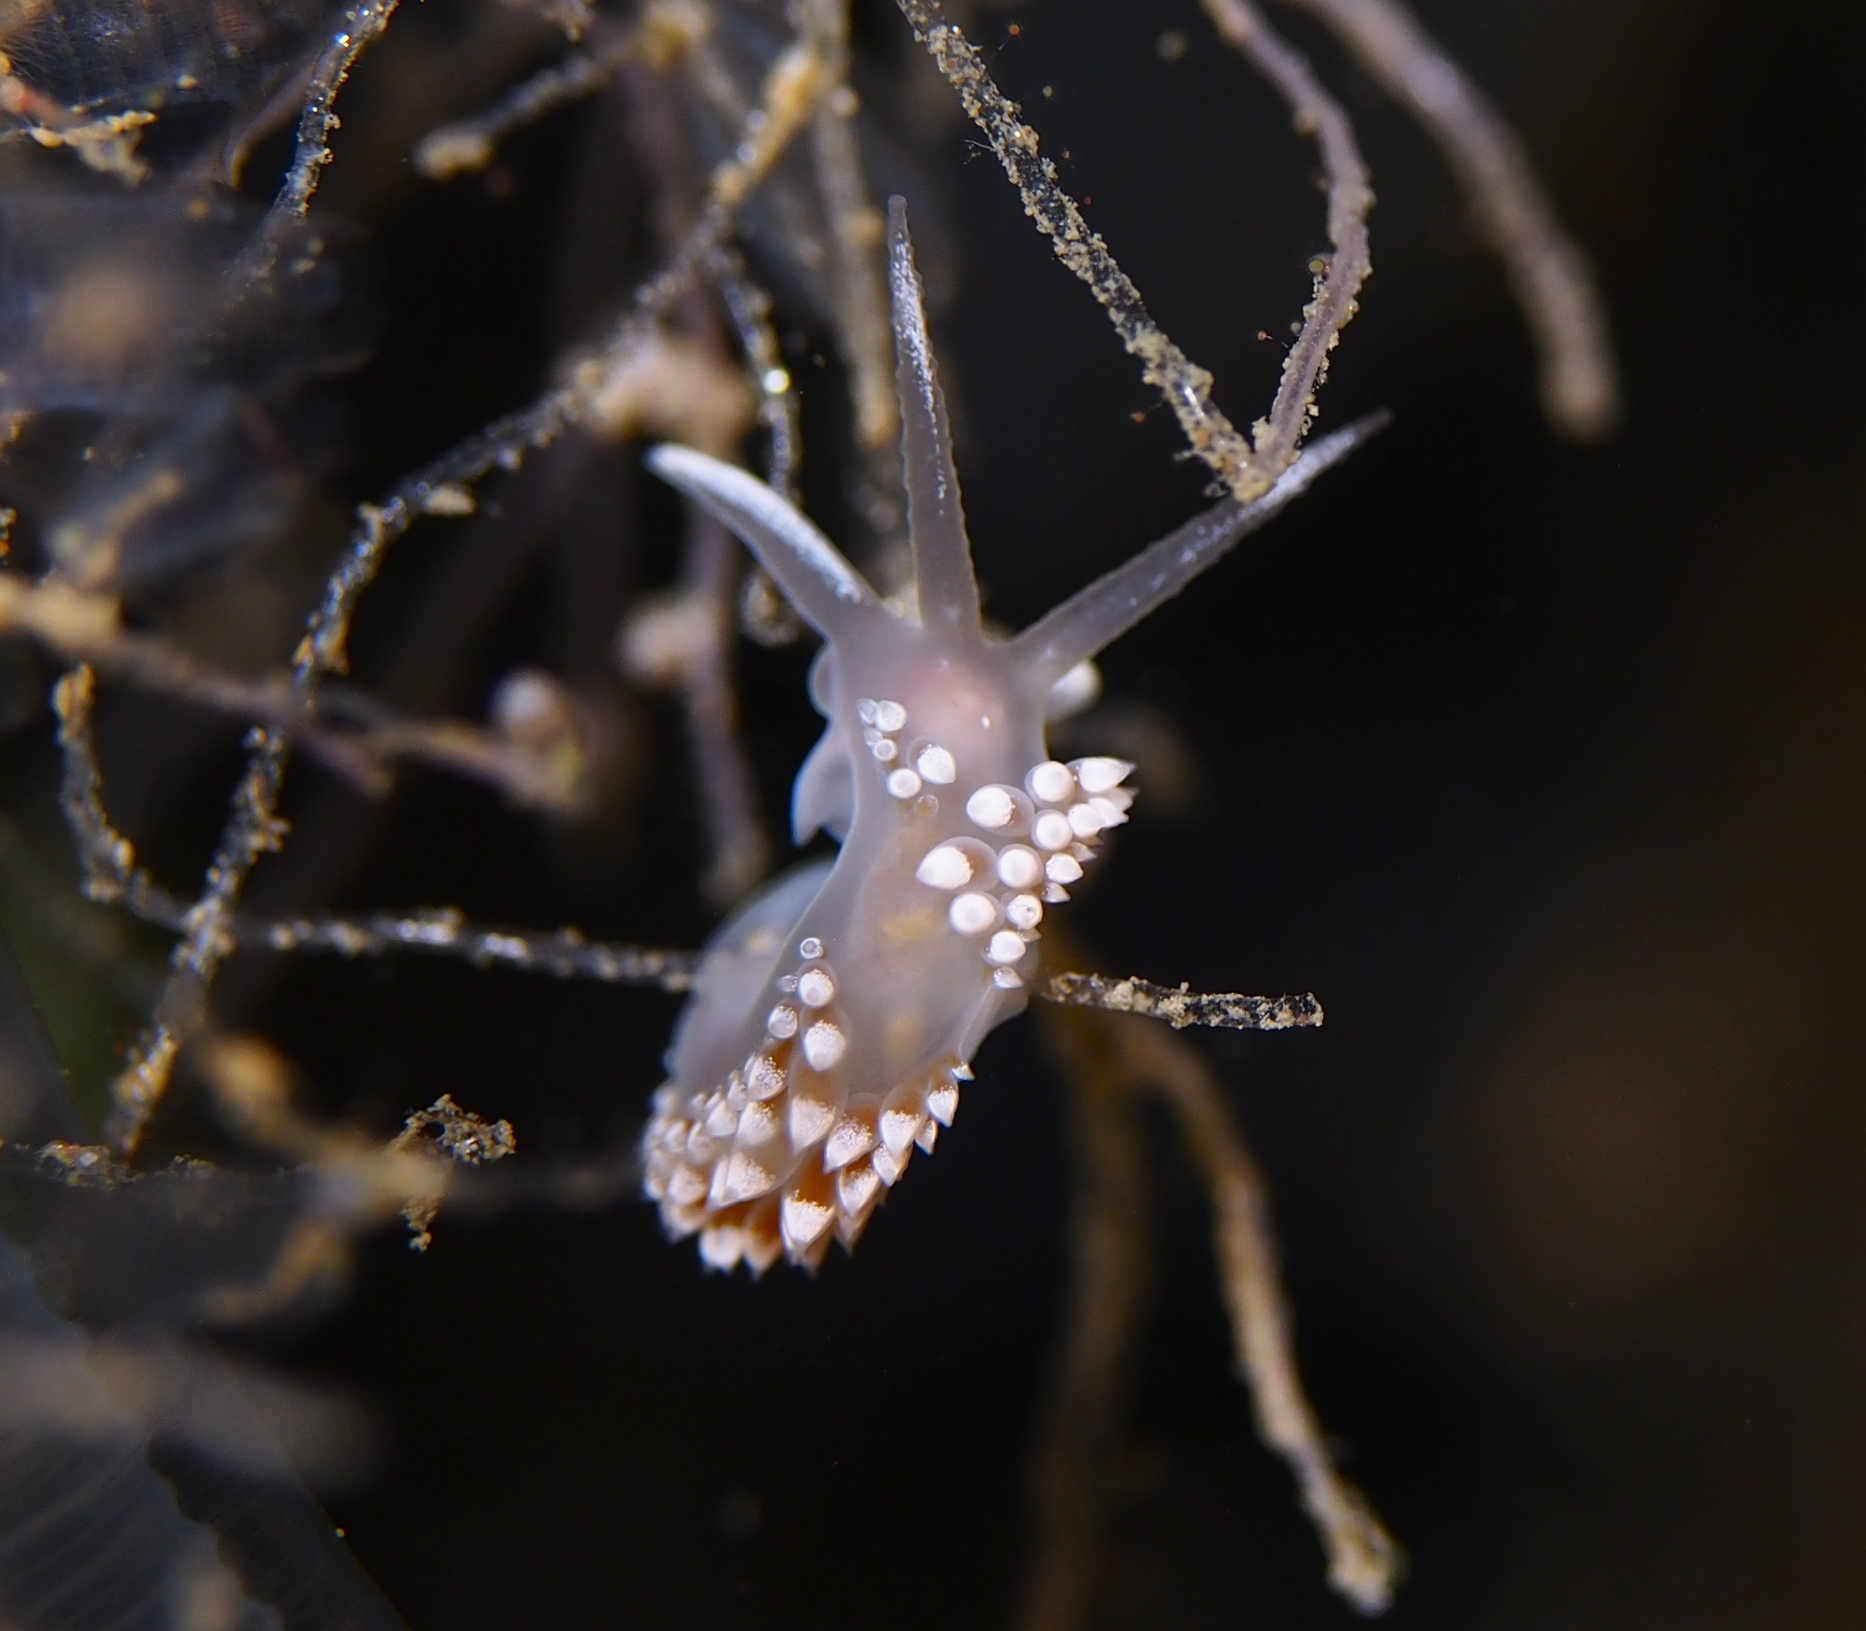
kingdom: Animalia
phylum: Mollusca
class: Gastropoda
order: Nudibranchia
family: Coryphellidae
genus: Coryphella
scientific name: Coryphella verrucosa
